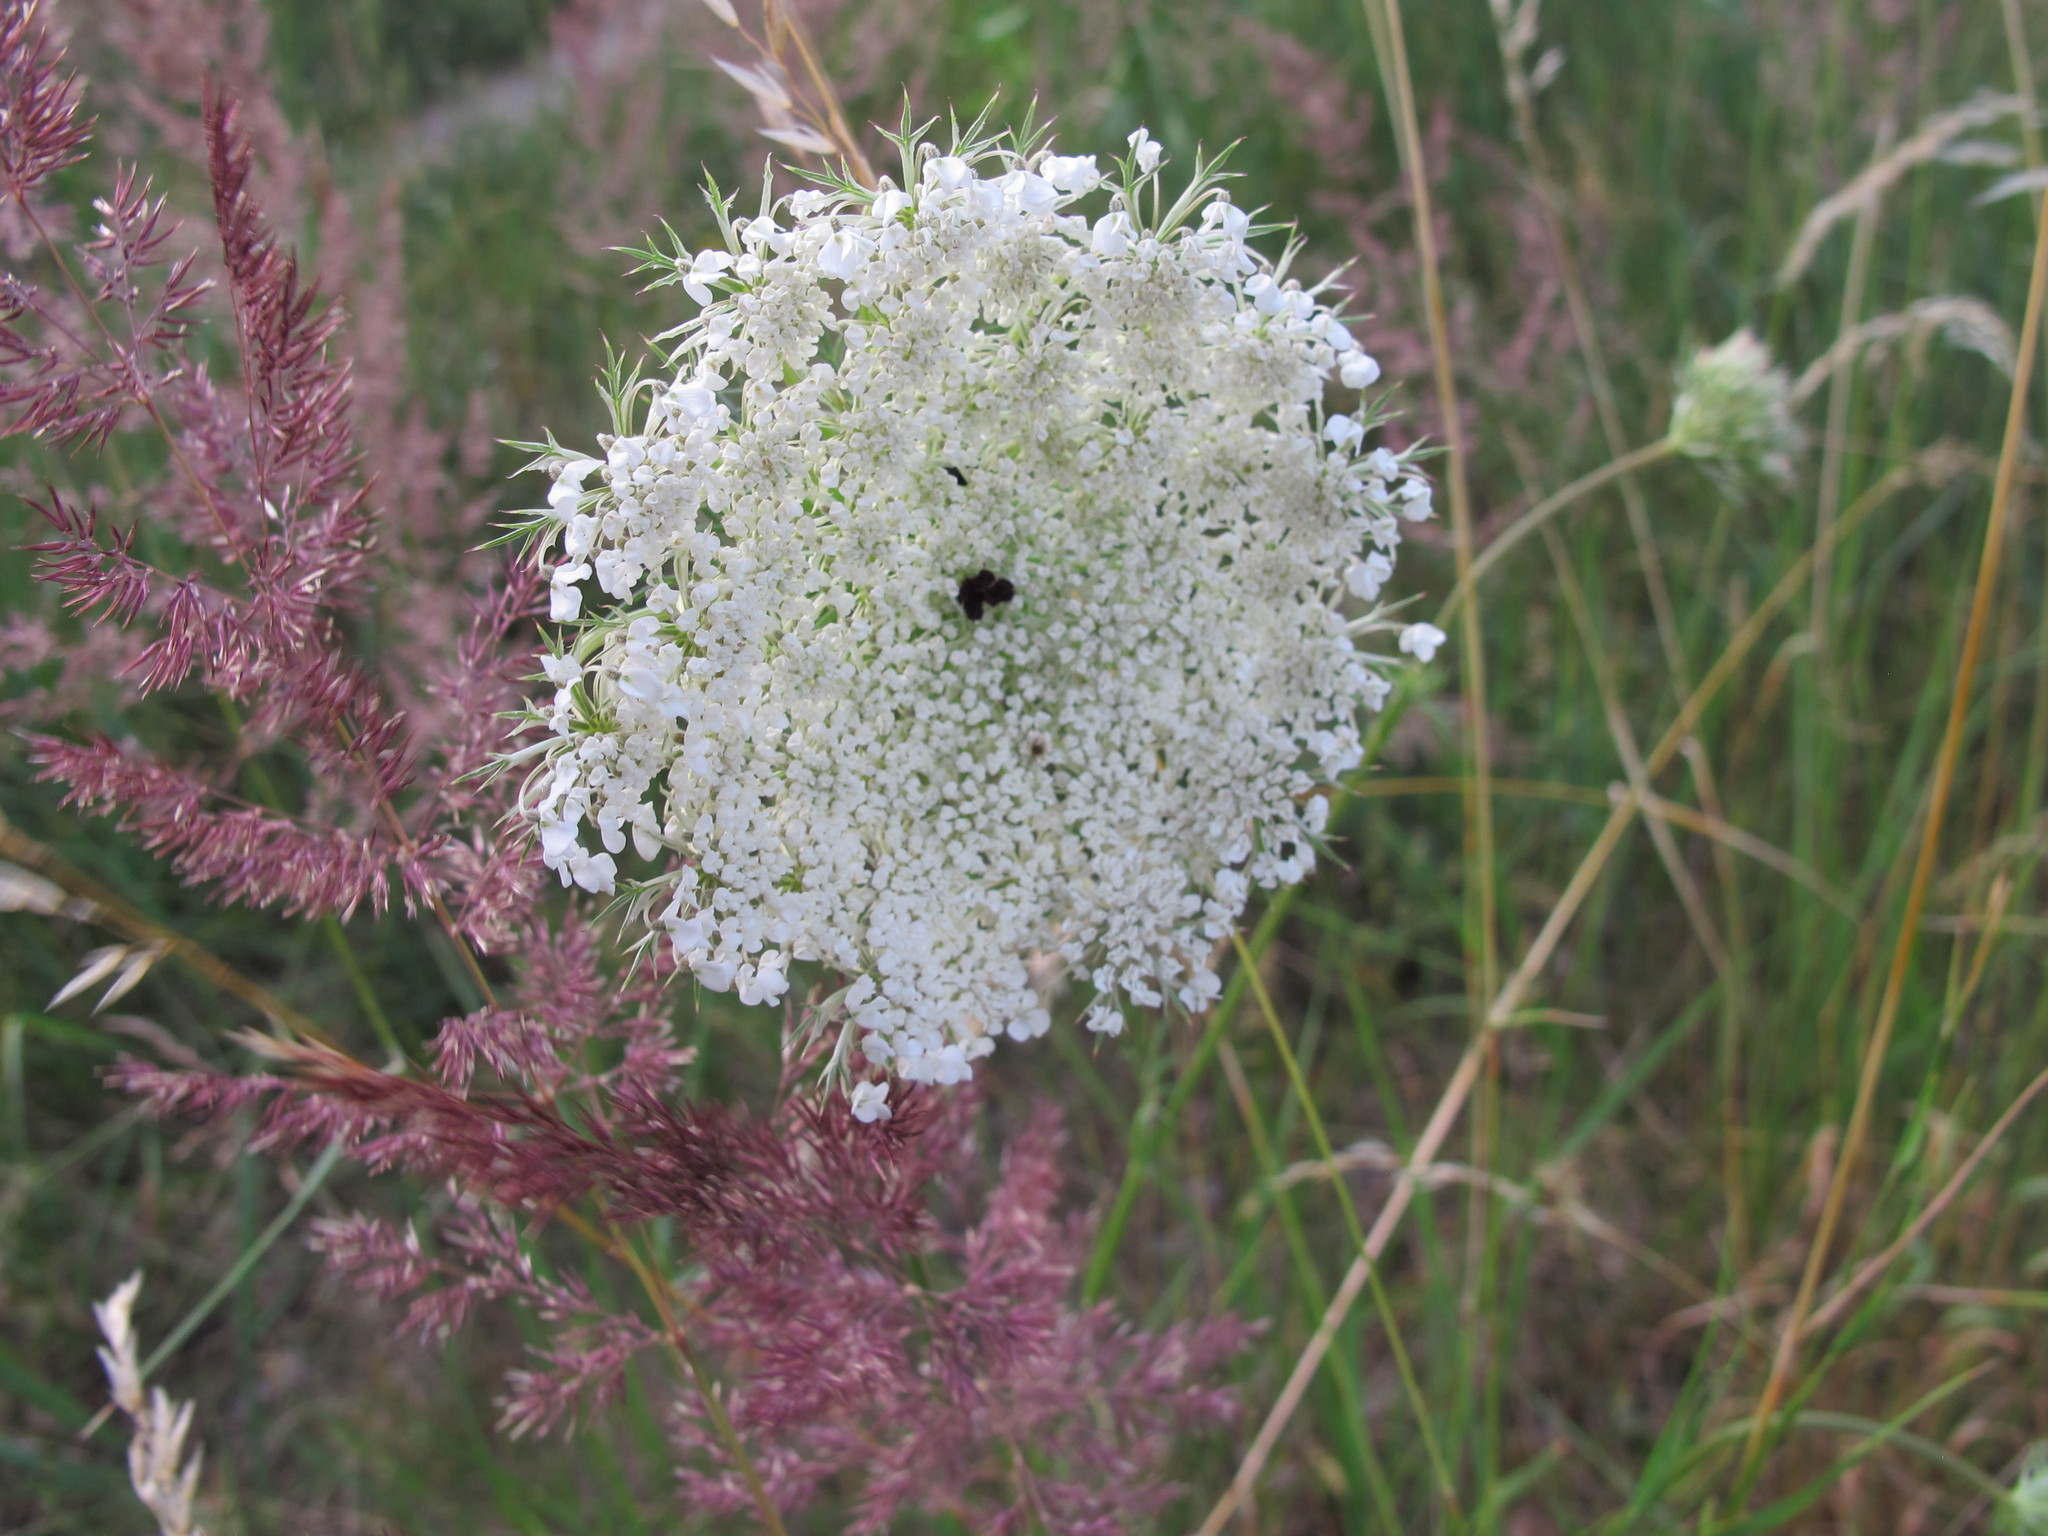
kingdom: Plantae
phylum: Tracheophyta
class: Magnoliopsida
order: Apiales
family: Apiaceae
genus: Daucus
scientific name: Daucus carota
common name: Wild carrot
